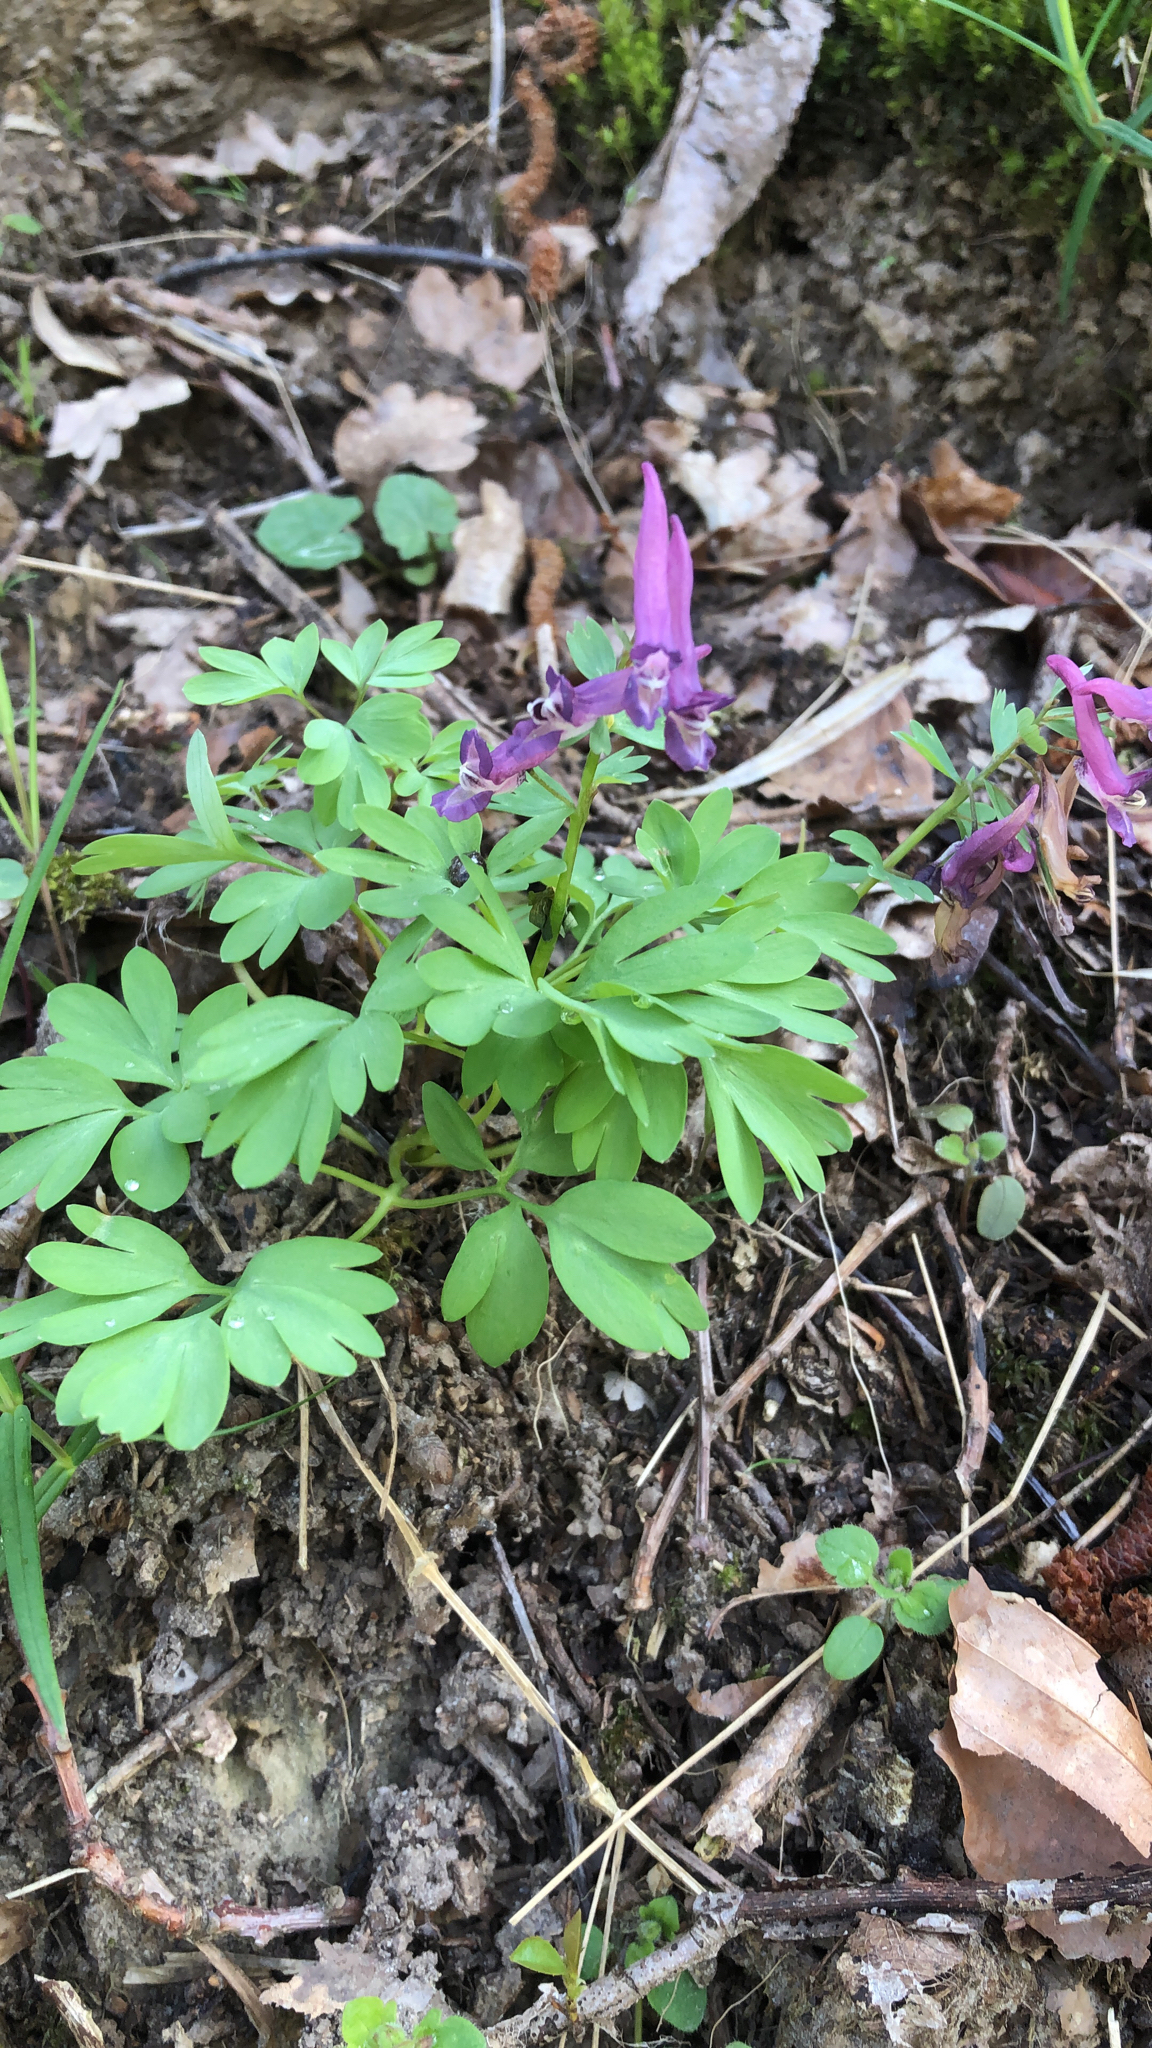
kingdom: Plantae
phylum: Tracheophyta
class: Magnoliopsida
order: Ranunculales
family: Papaveraceae
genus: Corydalis
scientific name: Corydalis solida
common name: Bird-in-a-bush
